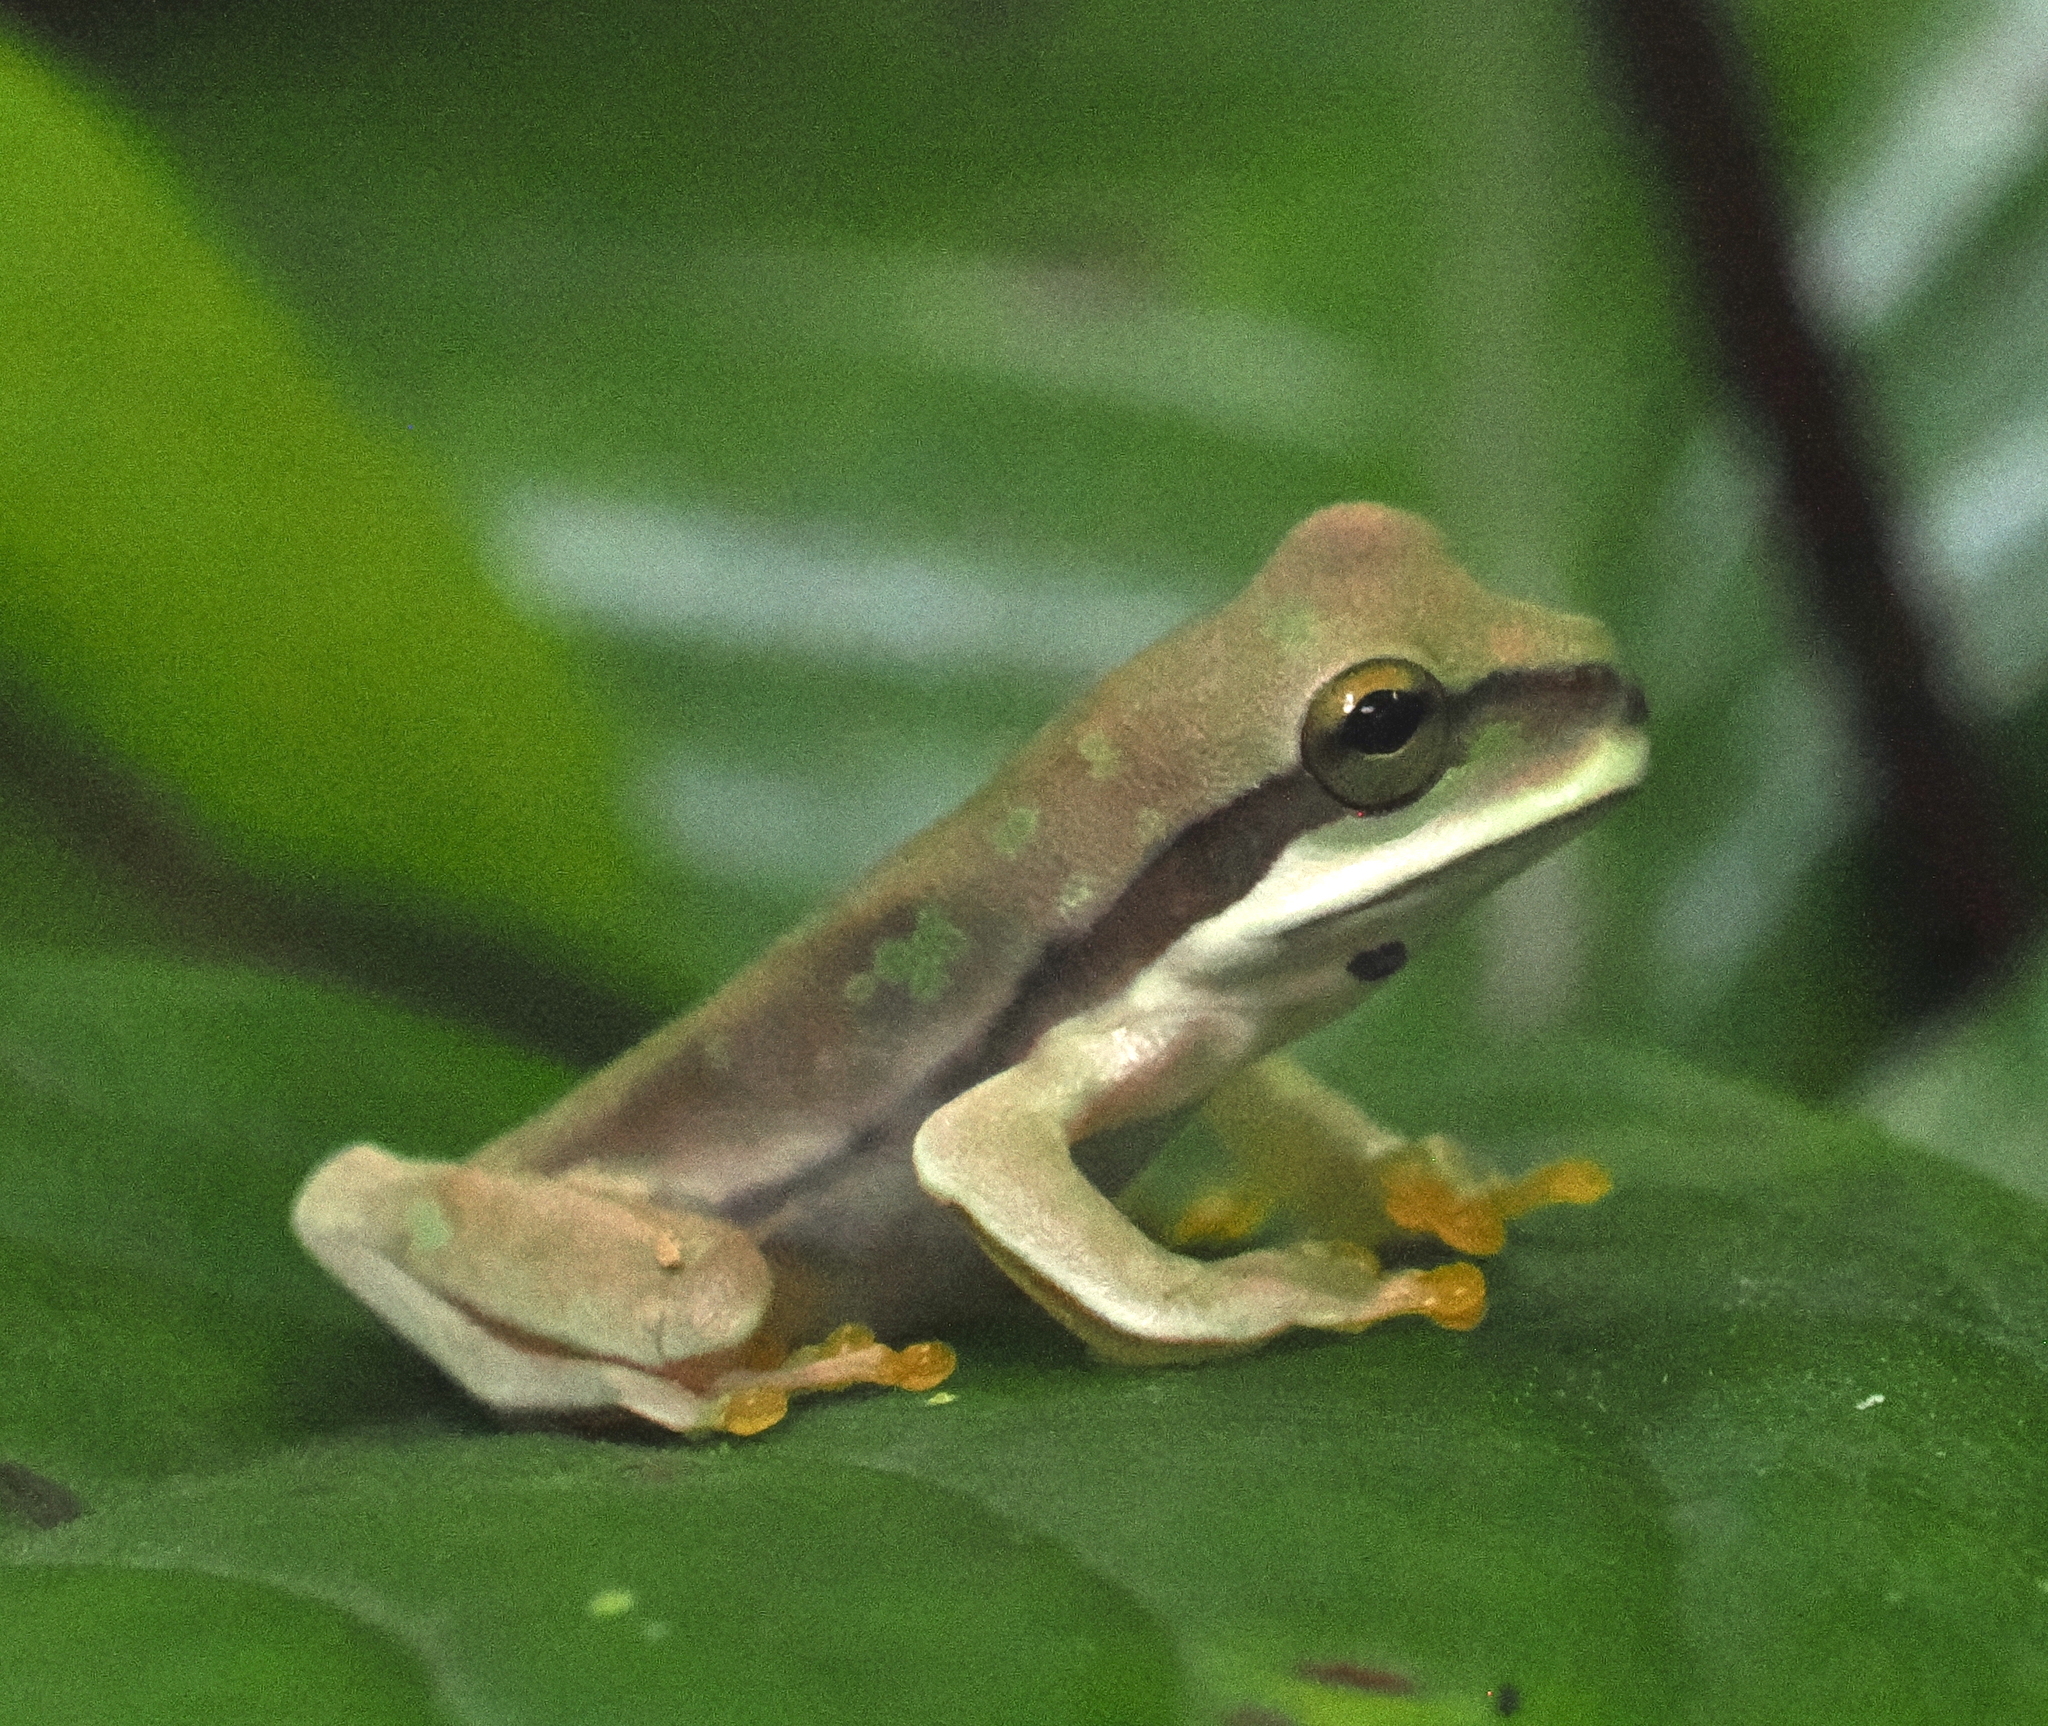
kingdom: Animalia
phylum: Chordata
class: Amphibia
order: Anura
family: Hylidae
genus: Smilisca
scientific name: Smilisca phaeota
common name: Central american smilisca
